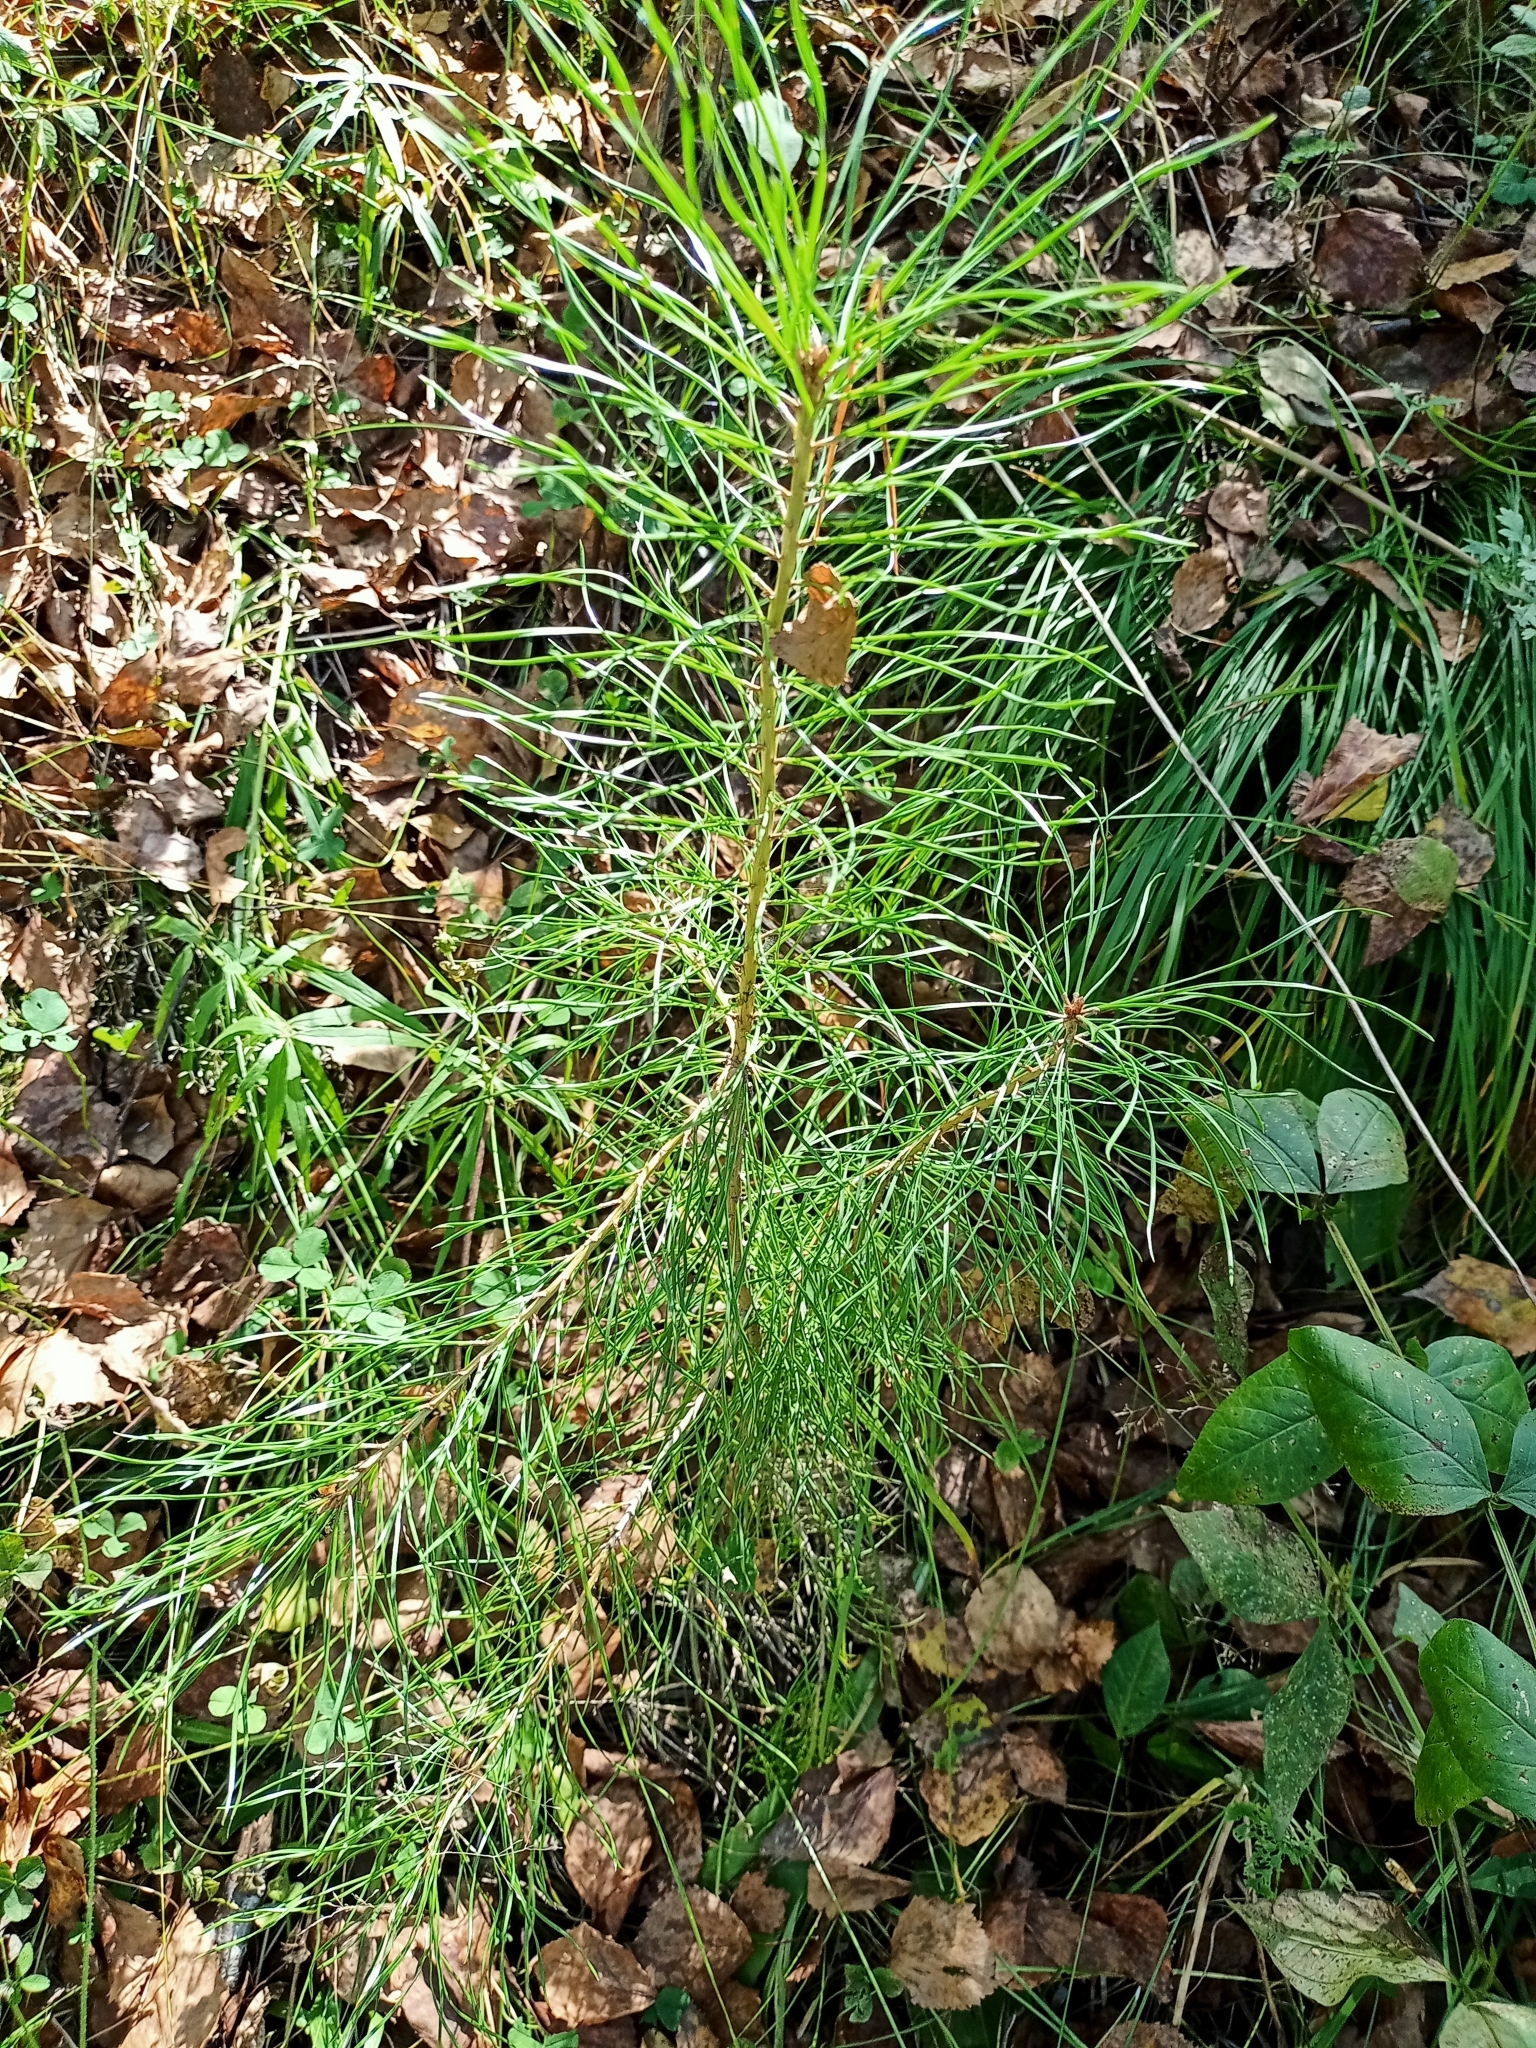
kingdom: Plantae
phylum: Tracheophyta
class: Pinopsida
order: Pinales
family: Pinaceae
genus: Pinus
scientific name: Pinus sylvestris
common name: Scots pine
